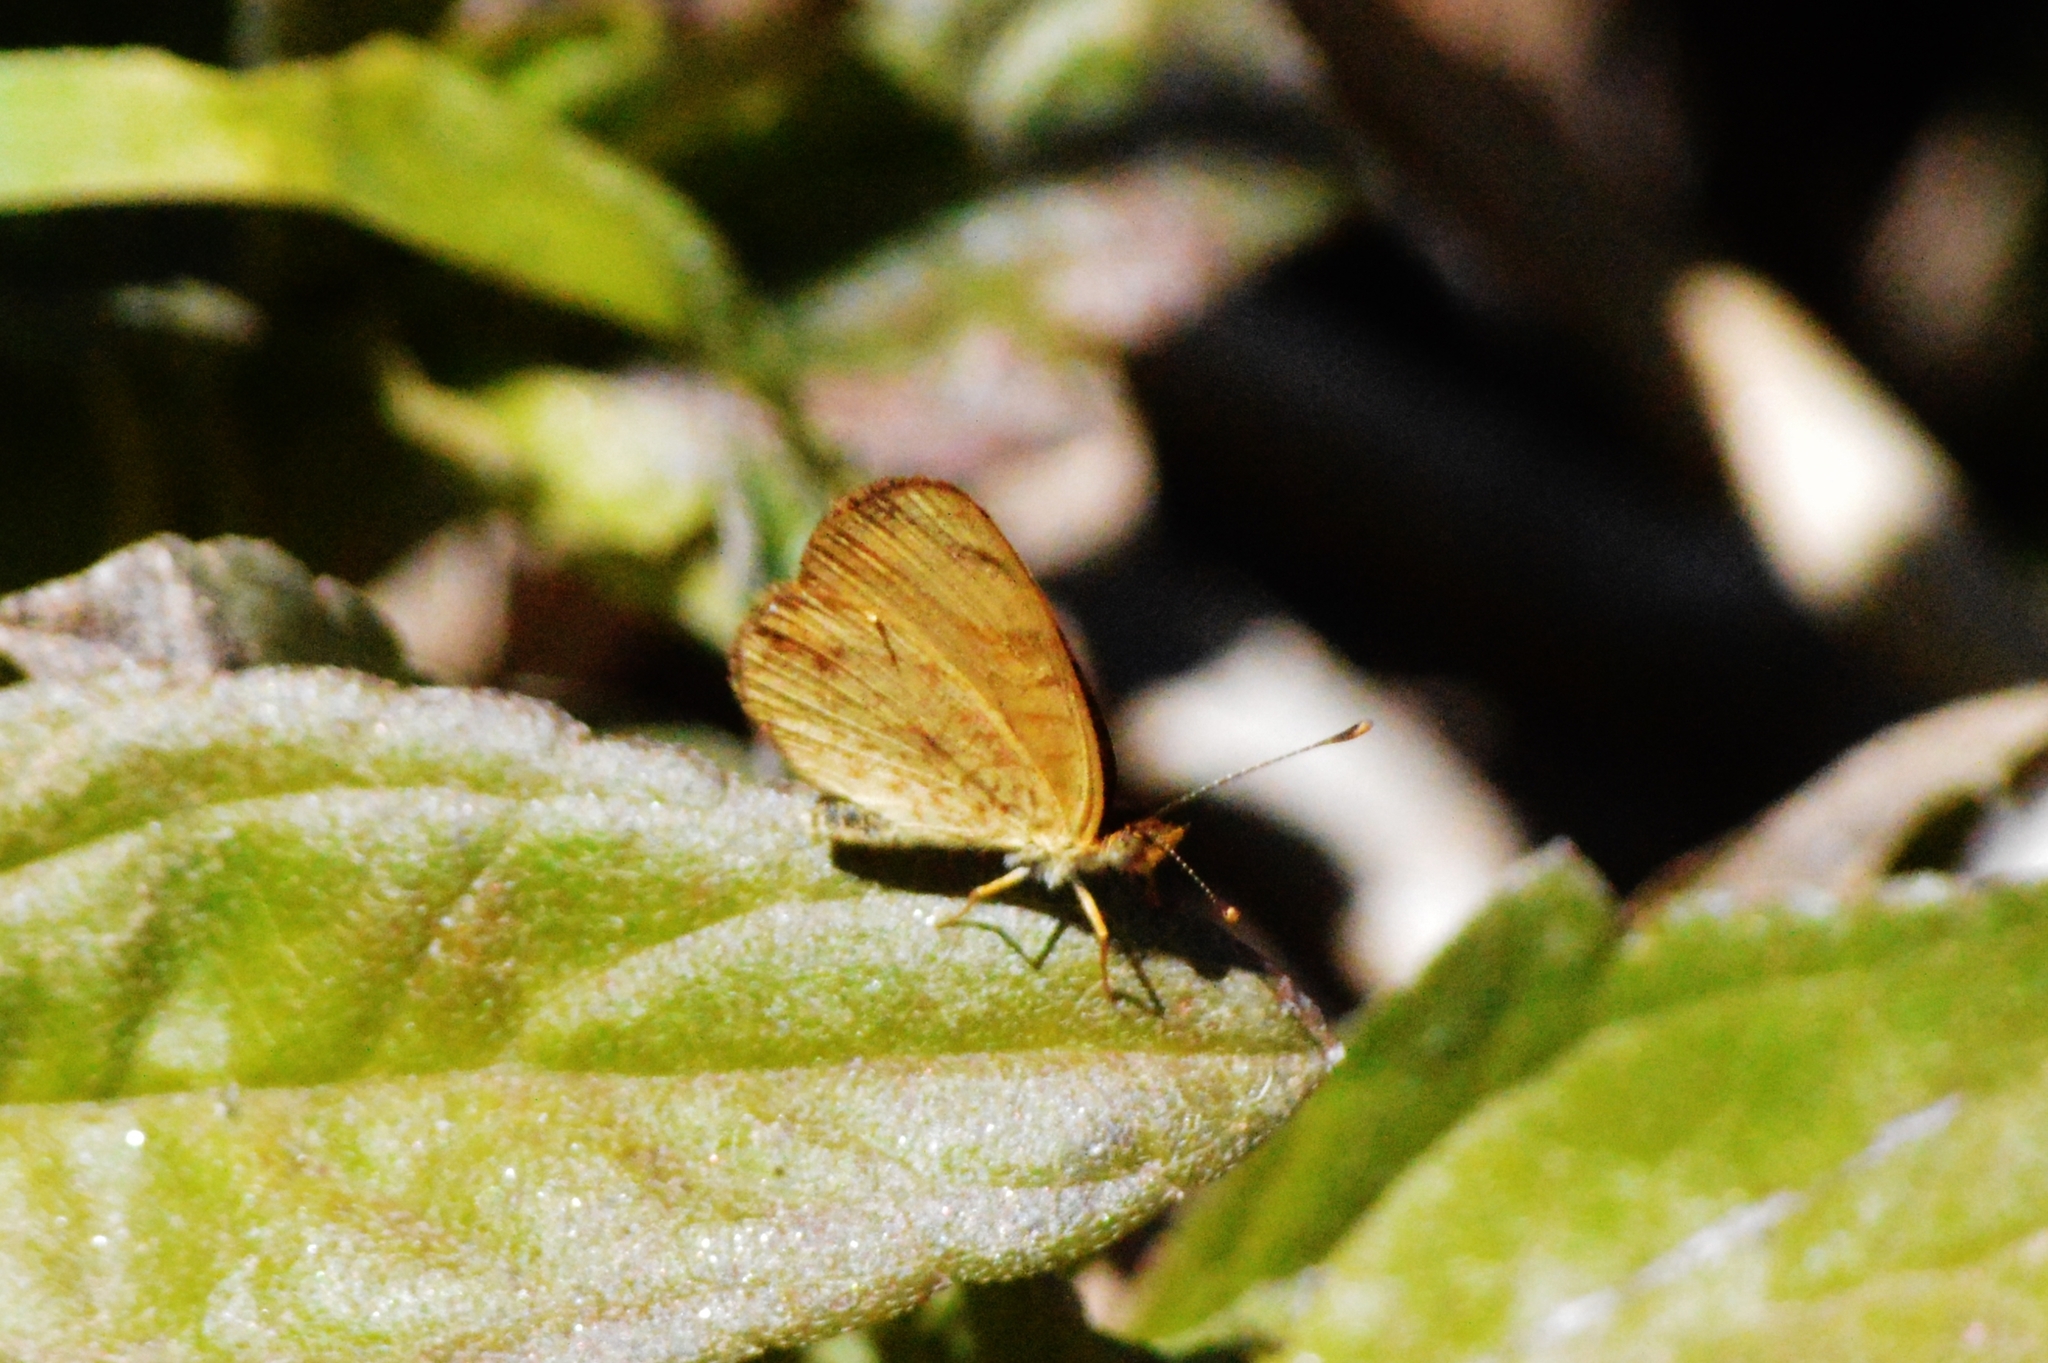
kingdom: Animalia
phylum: Arthropoda
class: Insecta
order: Lepidoptera
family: Nymphalidae
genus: Tegosa
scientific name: Tegosa claudina
